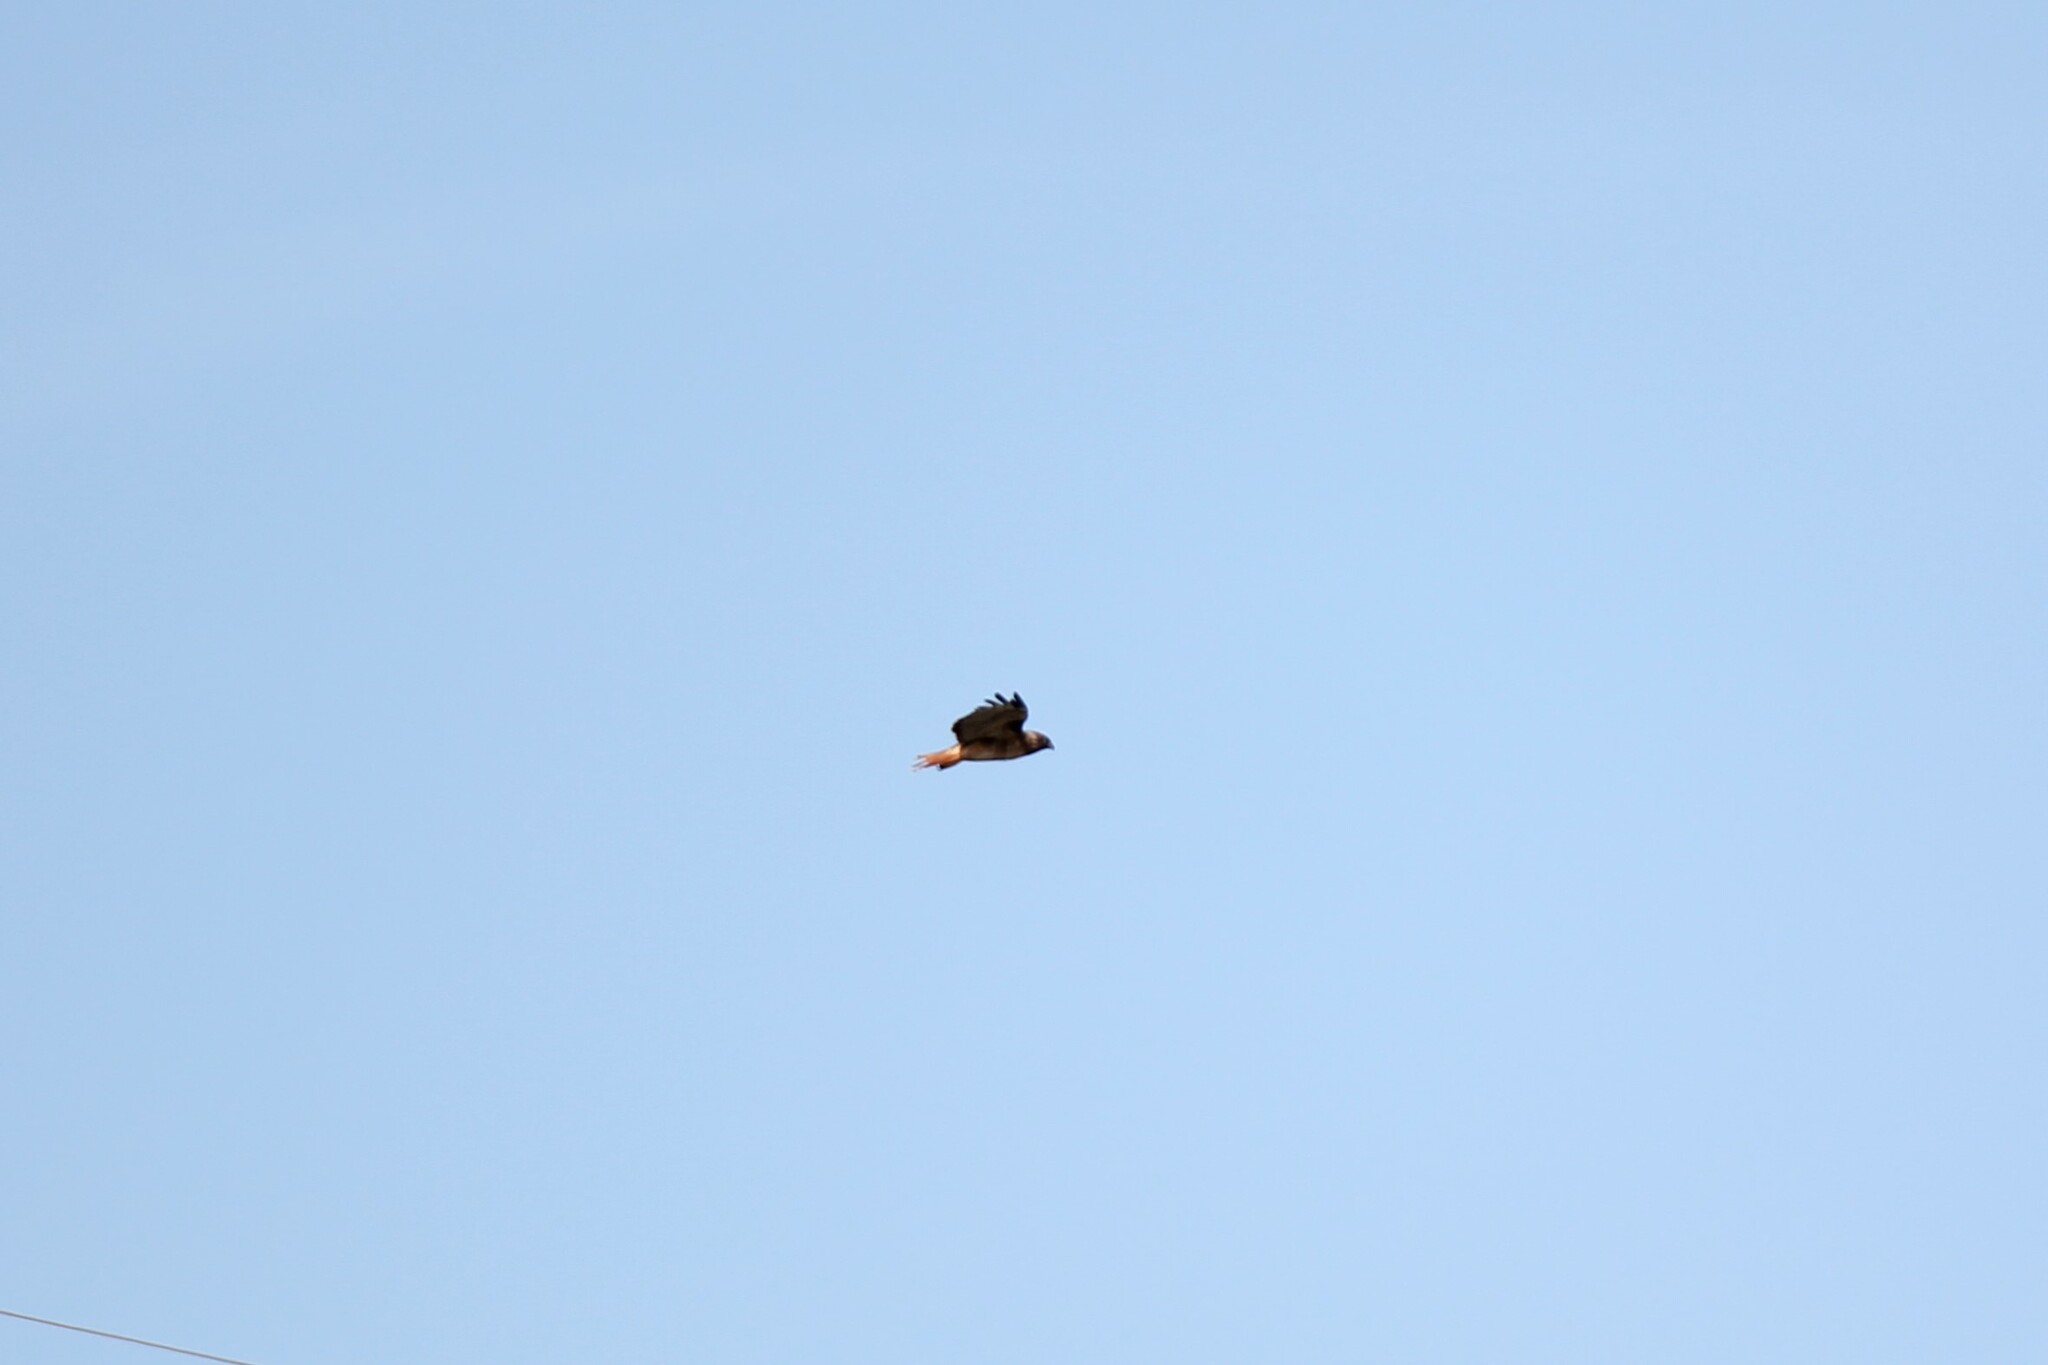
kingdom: Animalia
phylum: Chordata
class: Aves
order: Accipitriformes
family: Accipitridae
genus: Buteo
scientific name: Buteo jamaicensis
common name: Red-tailed hawk
